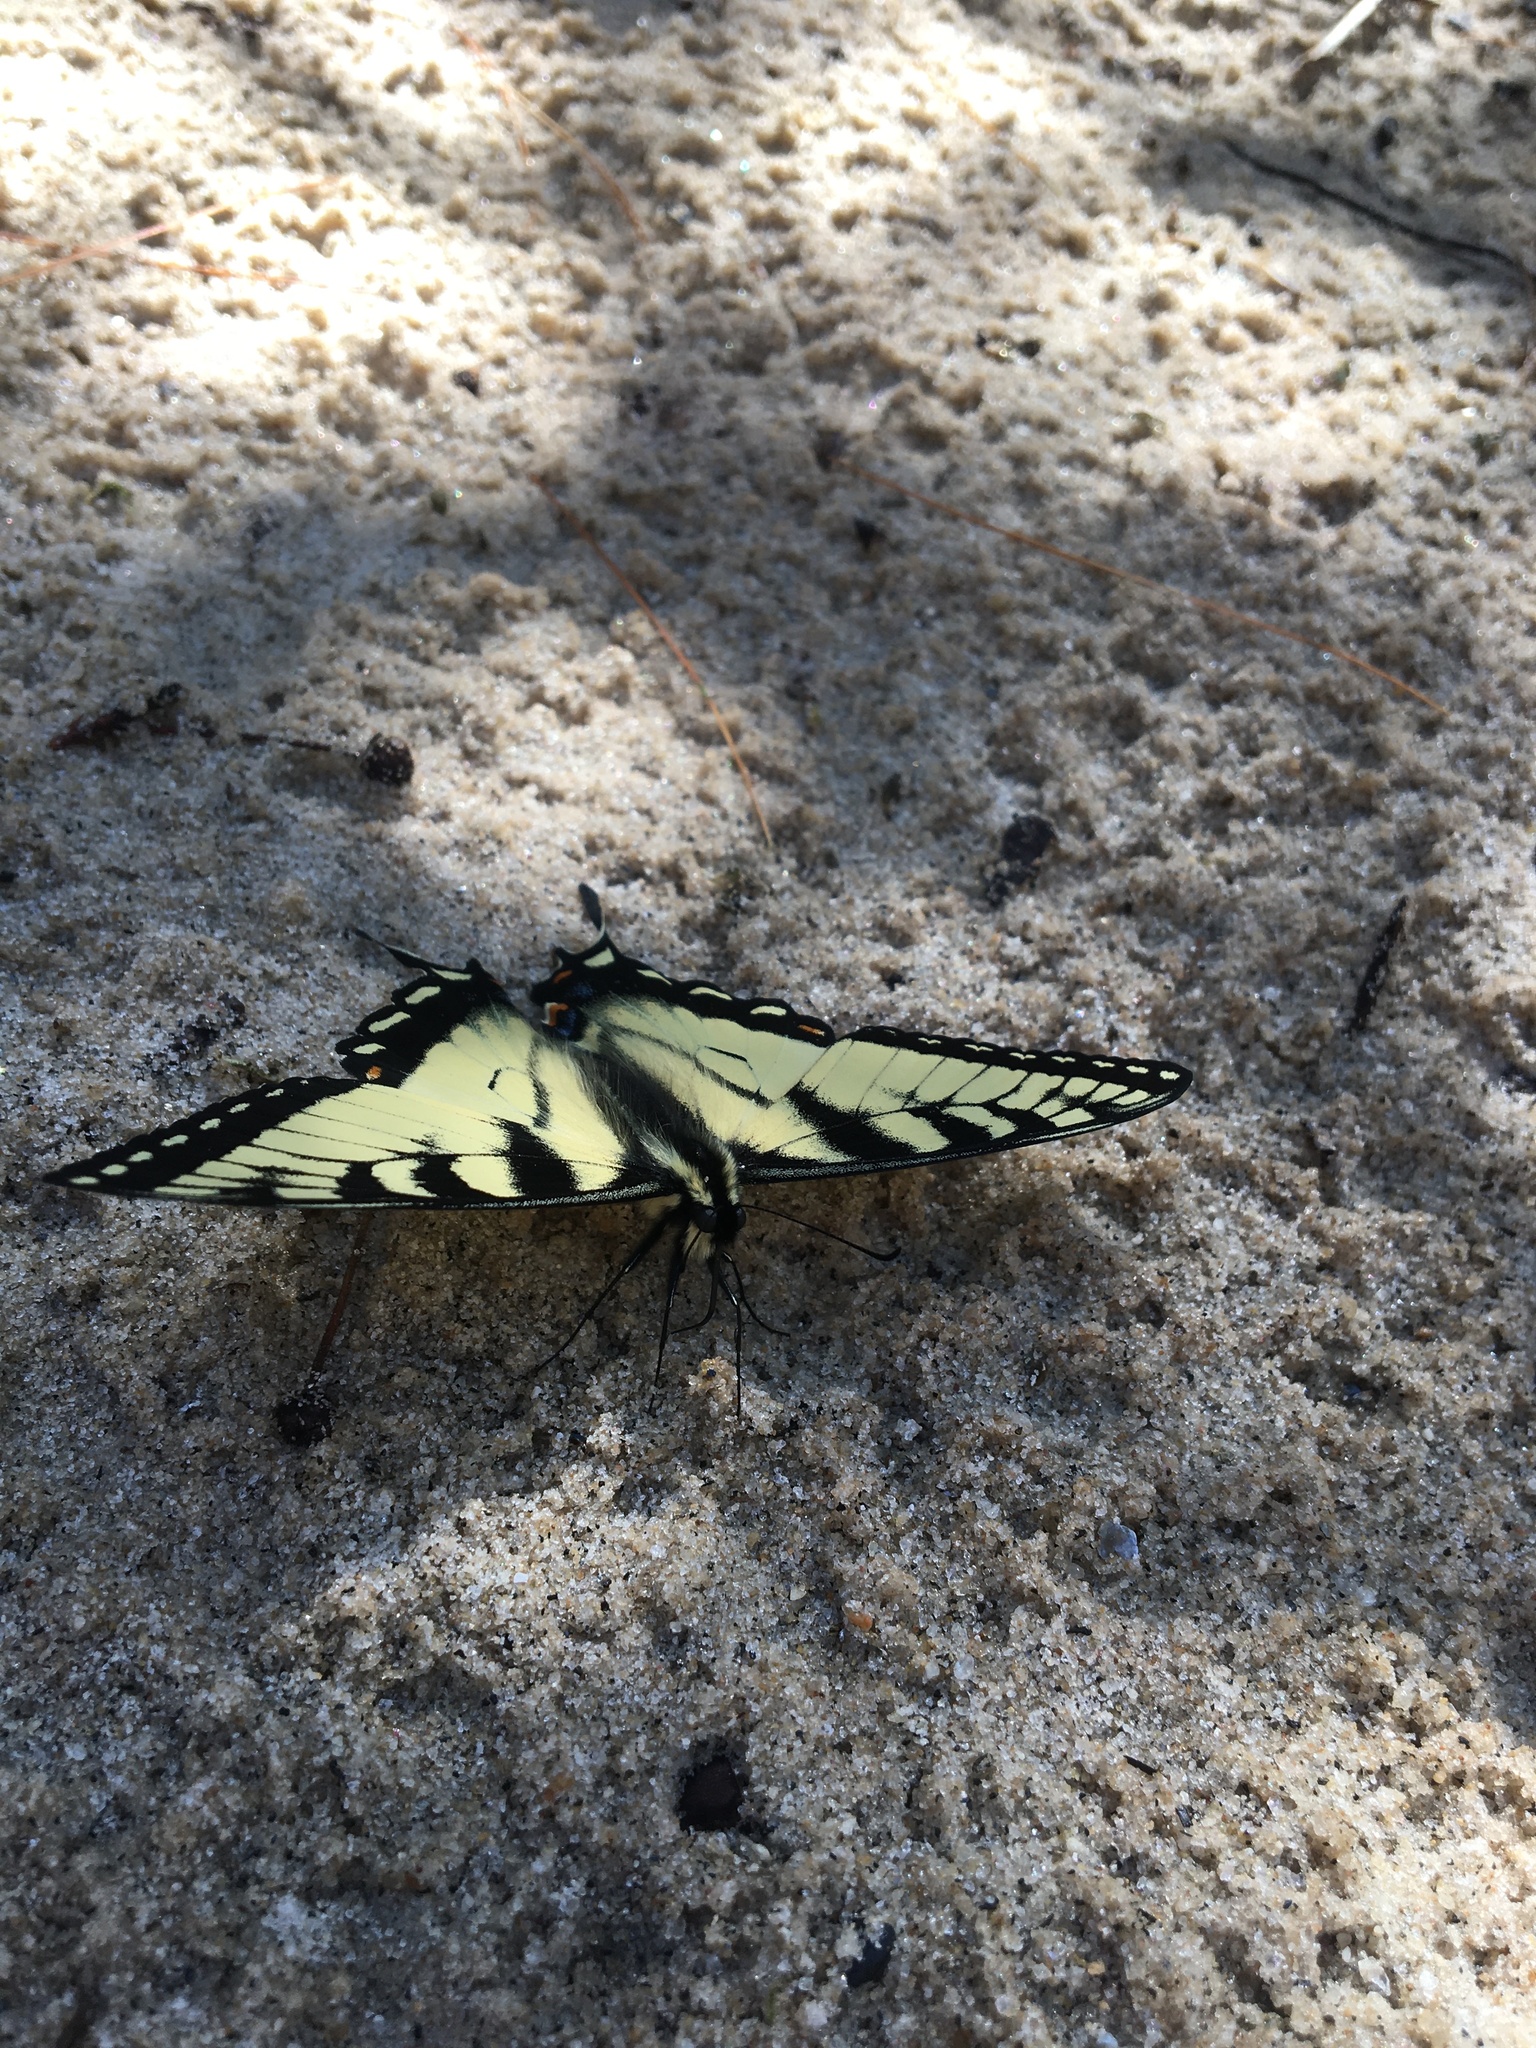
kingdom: Animalia
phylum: Arthropoda
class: Insecta
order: Lepidoptera
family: Papilionidae
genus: Papilio
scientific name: Papilio glaucus
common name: Tiger swallowtail
